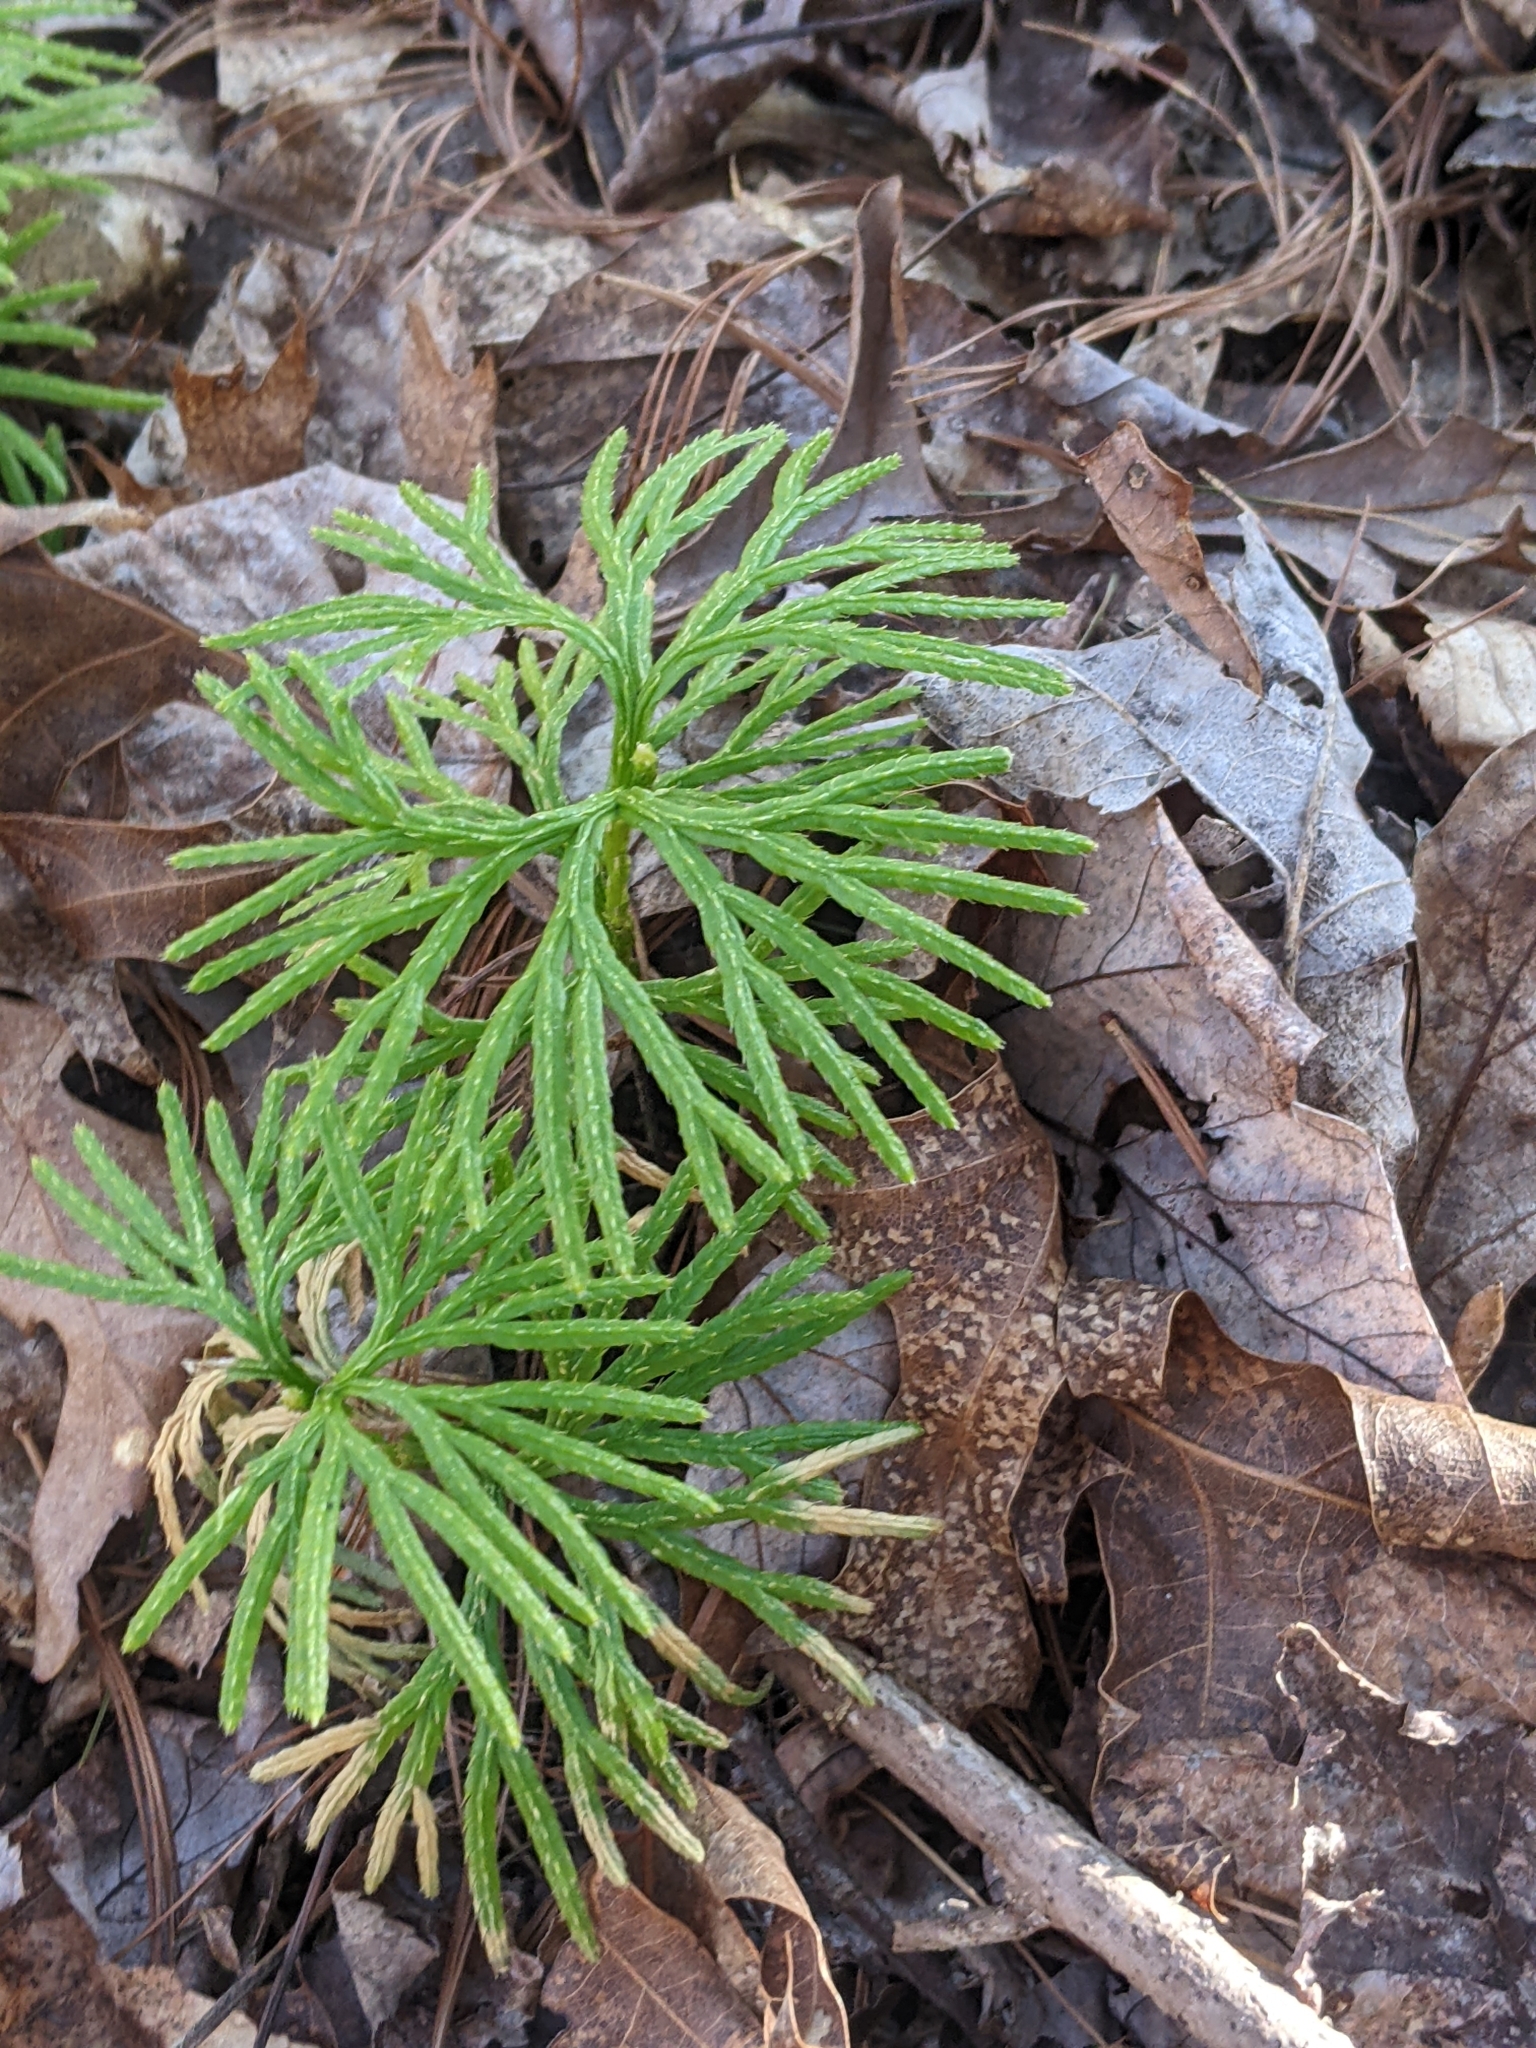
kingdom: Plantae
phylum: Tracheophyta
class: Lycopodiopsida
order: Lycopodiales
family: Lycopodiaceae
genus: Diphasiastrum
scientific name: Diphasiastrum digitatum
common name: Southern running-pine
